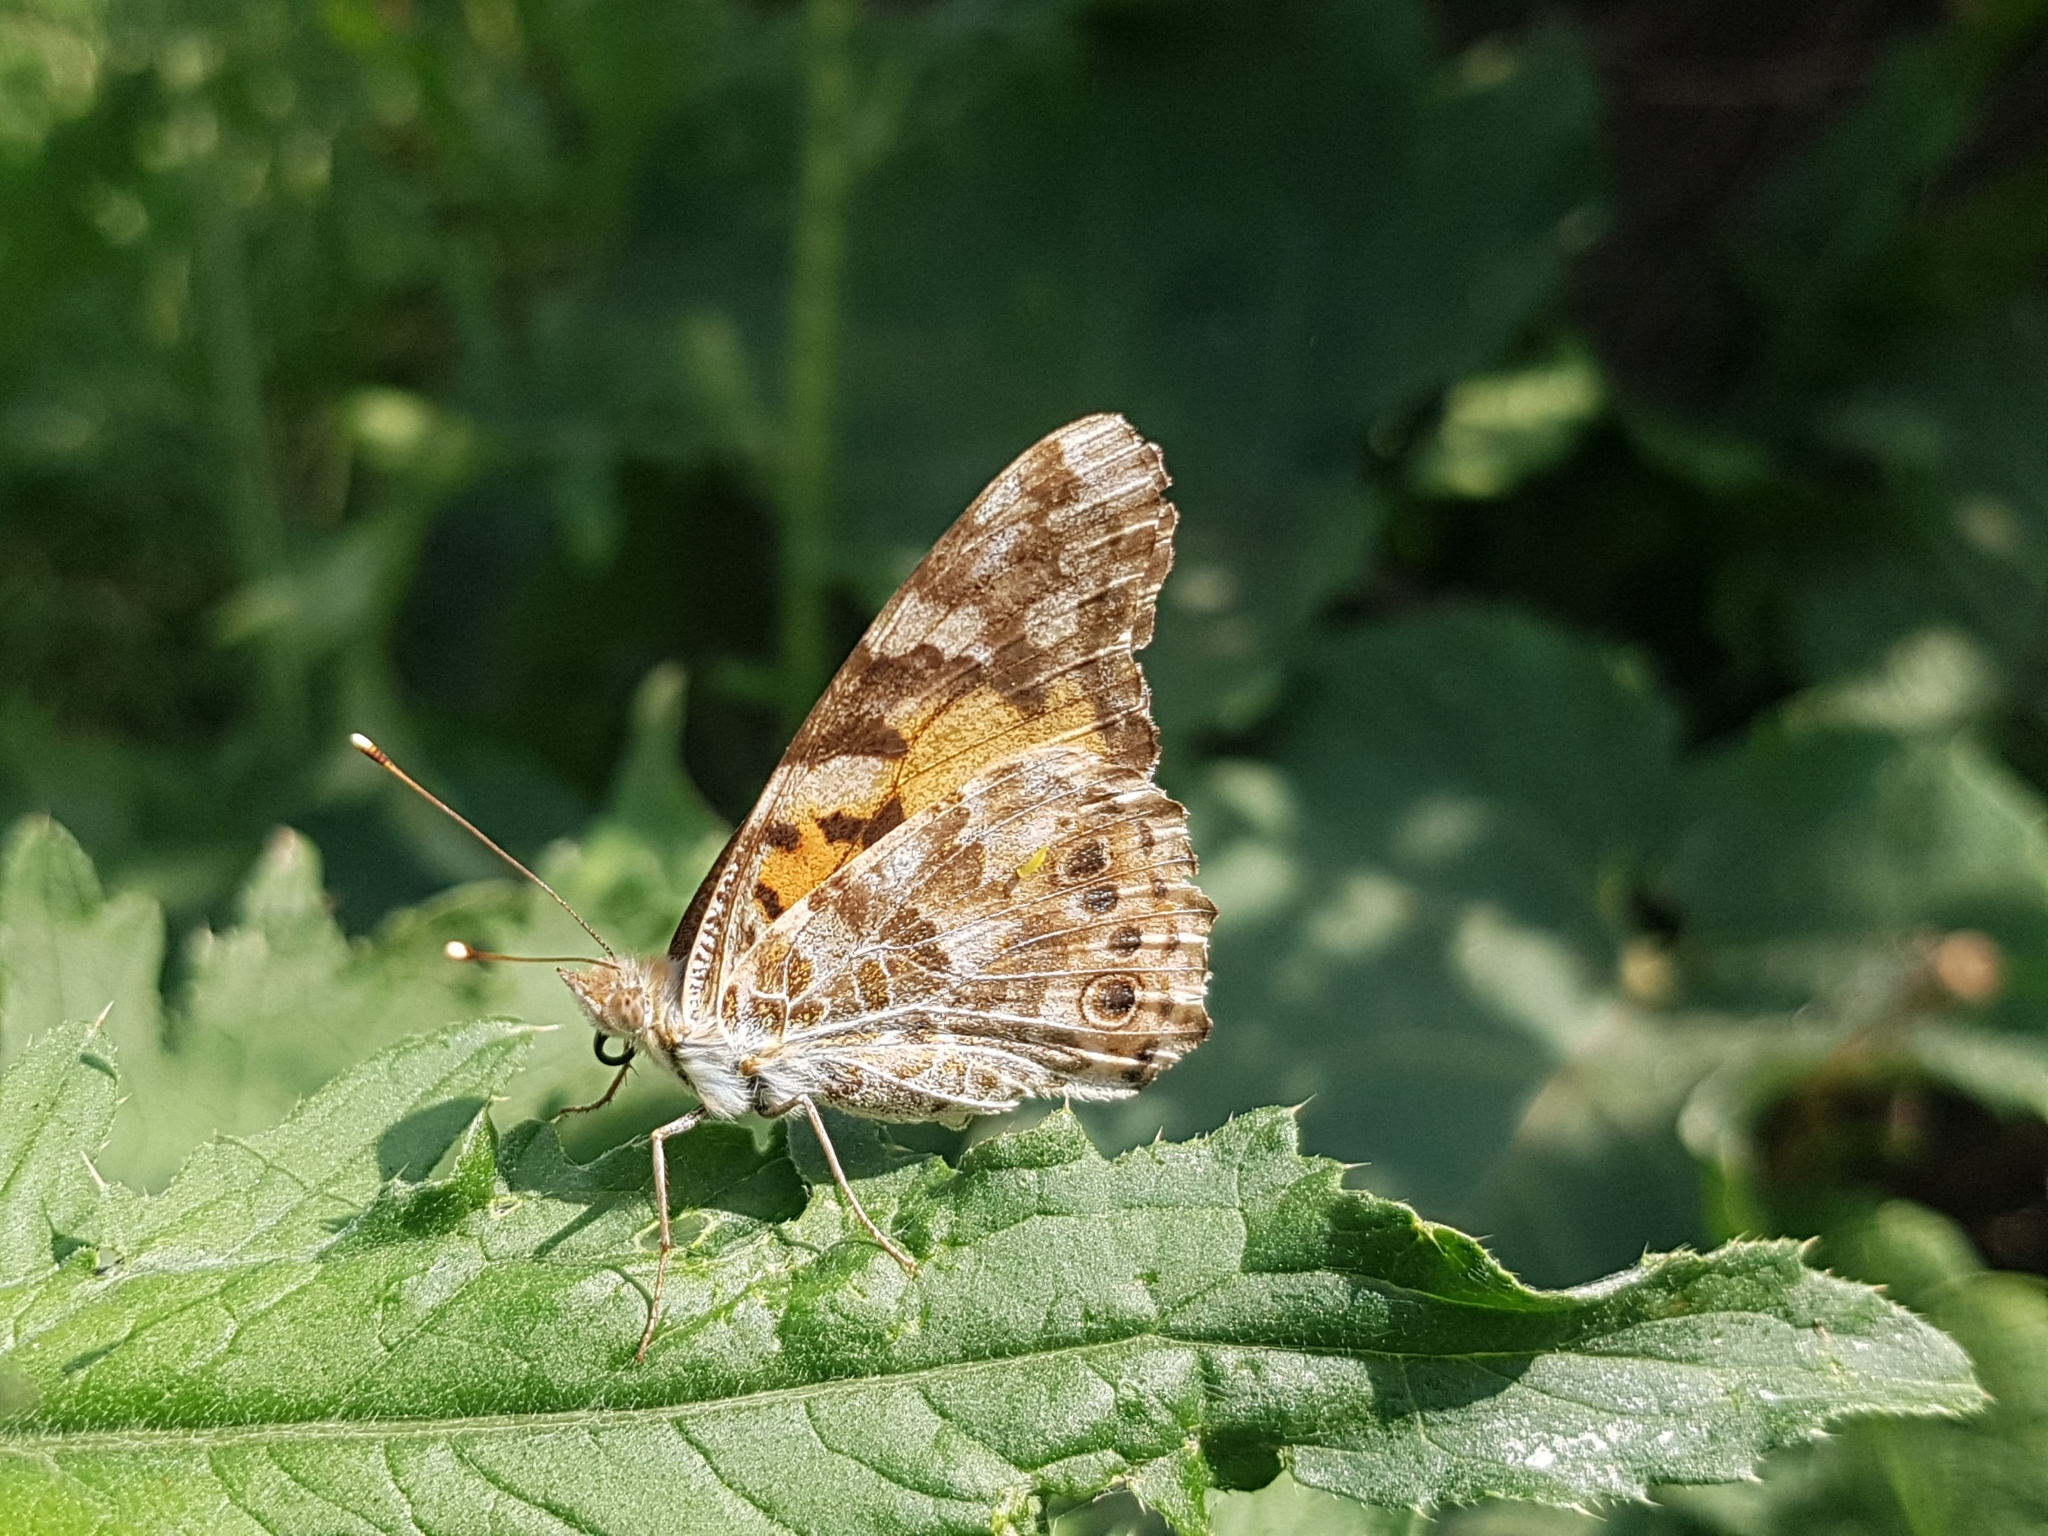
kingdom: Animalia
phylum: Arthropoda
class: Insecta
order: Lepidoptera
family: Nymphalidae
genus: Vanessa
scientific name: Vanessa cardui
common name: Painted lady
